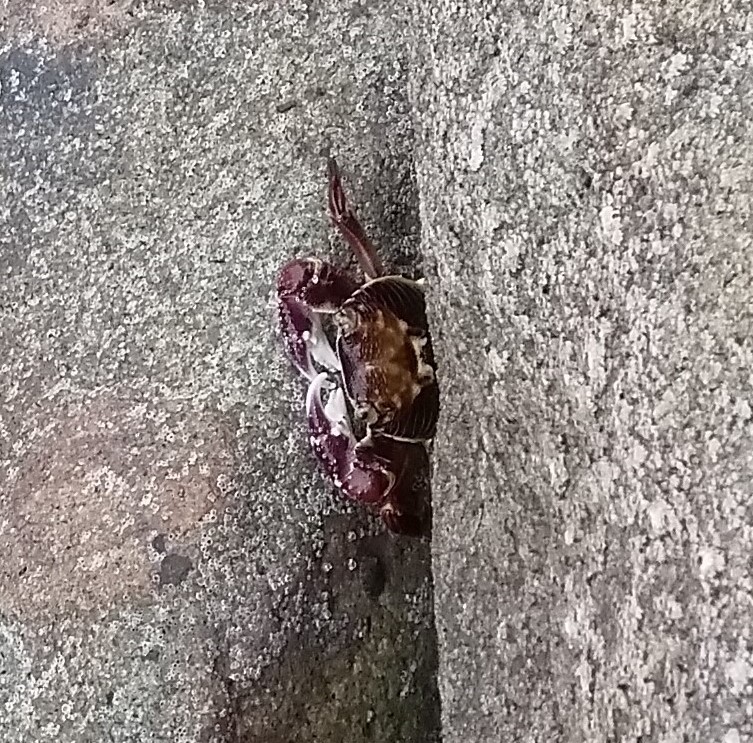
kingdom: Animalia
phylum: Arthropoda
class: Malacostraca
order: Decapoda
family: Grapsidae
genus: Leptograpsus
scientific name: Leptograpsus variegatus
